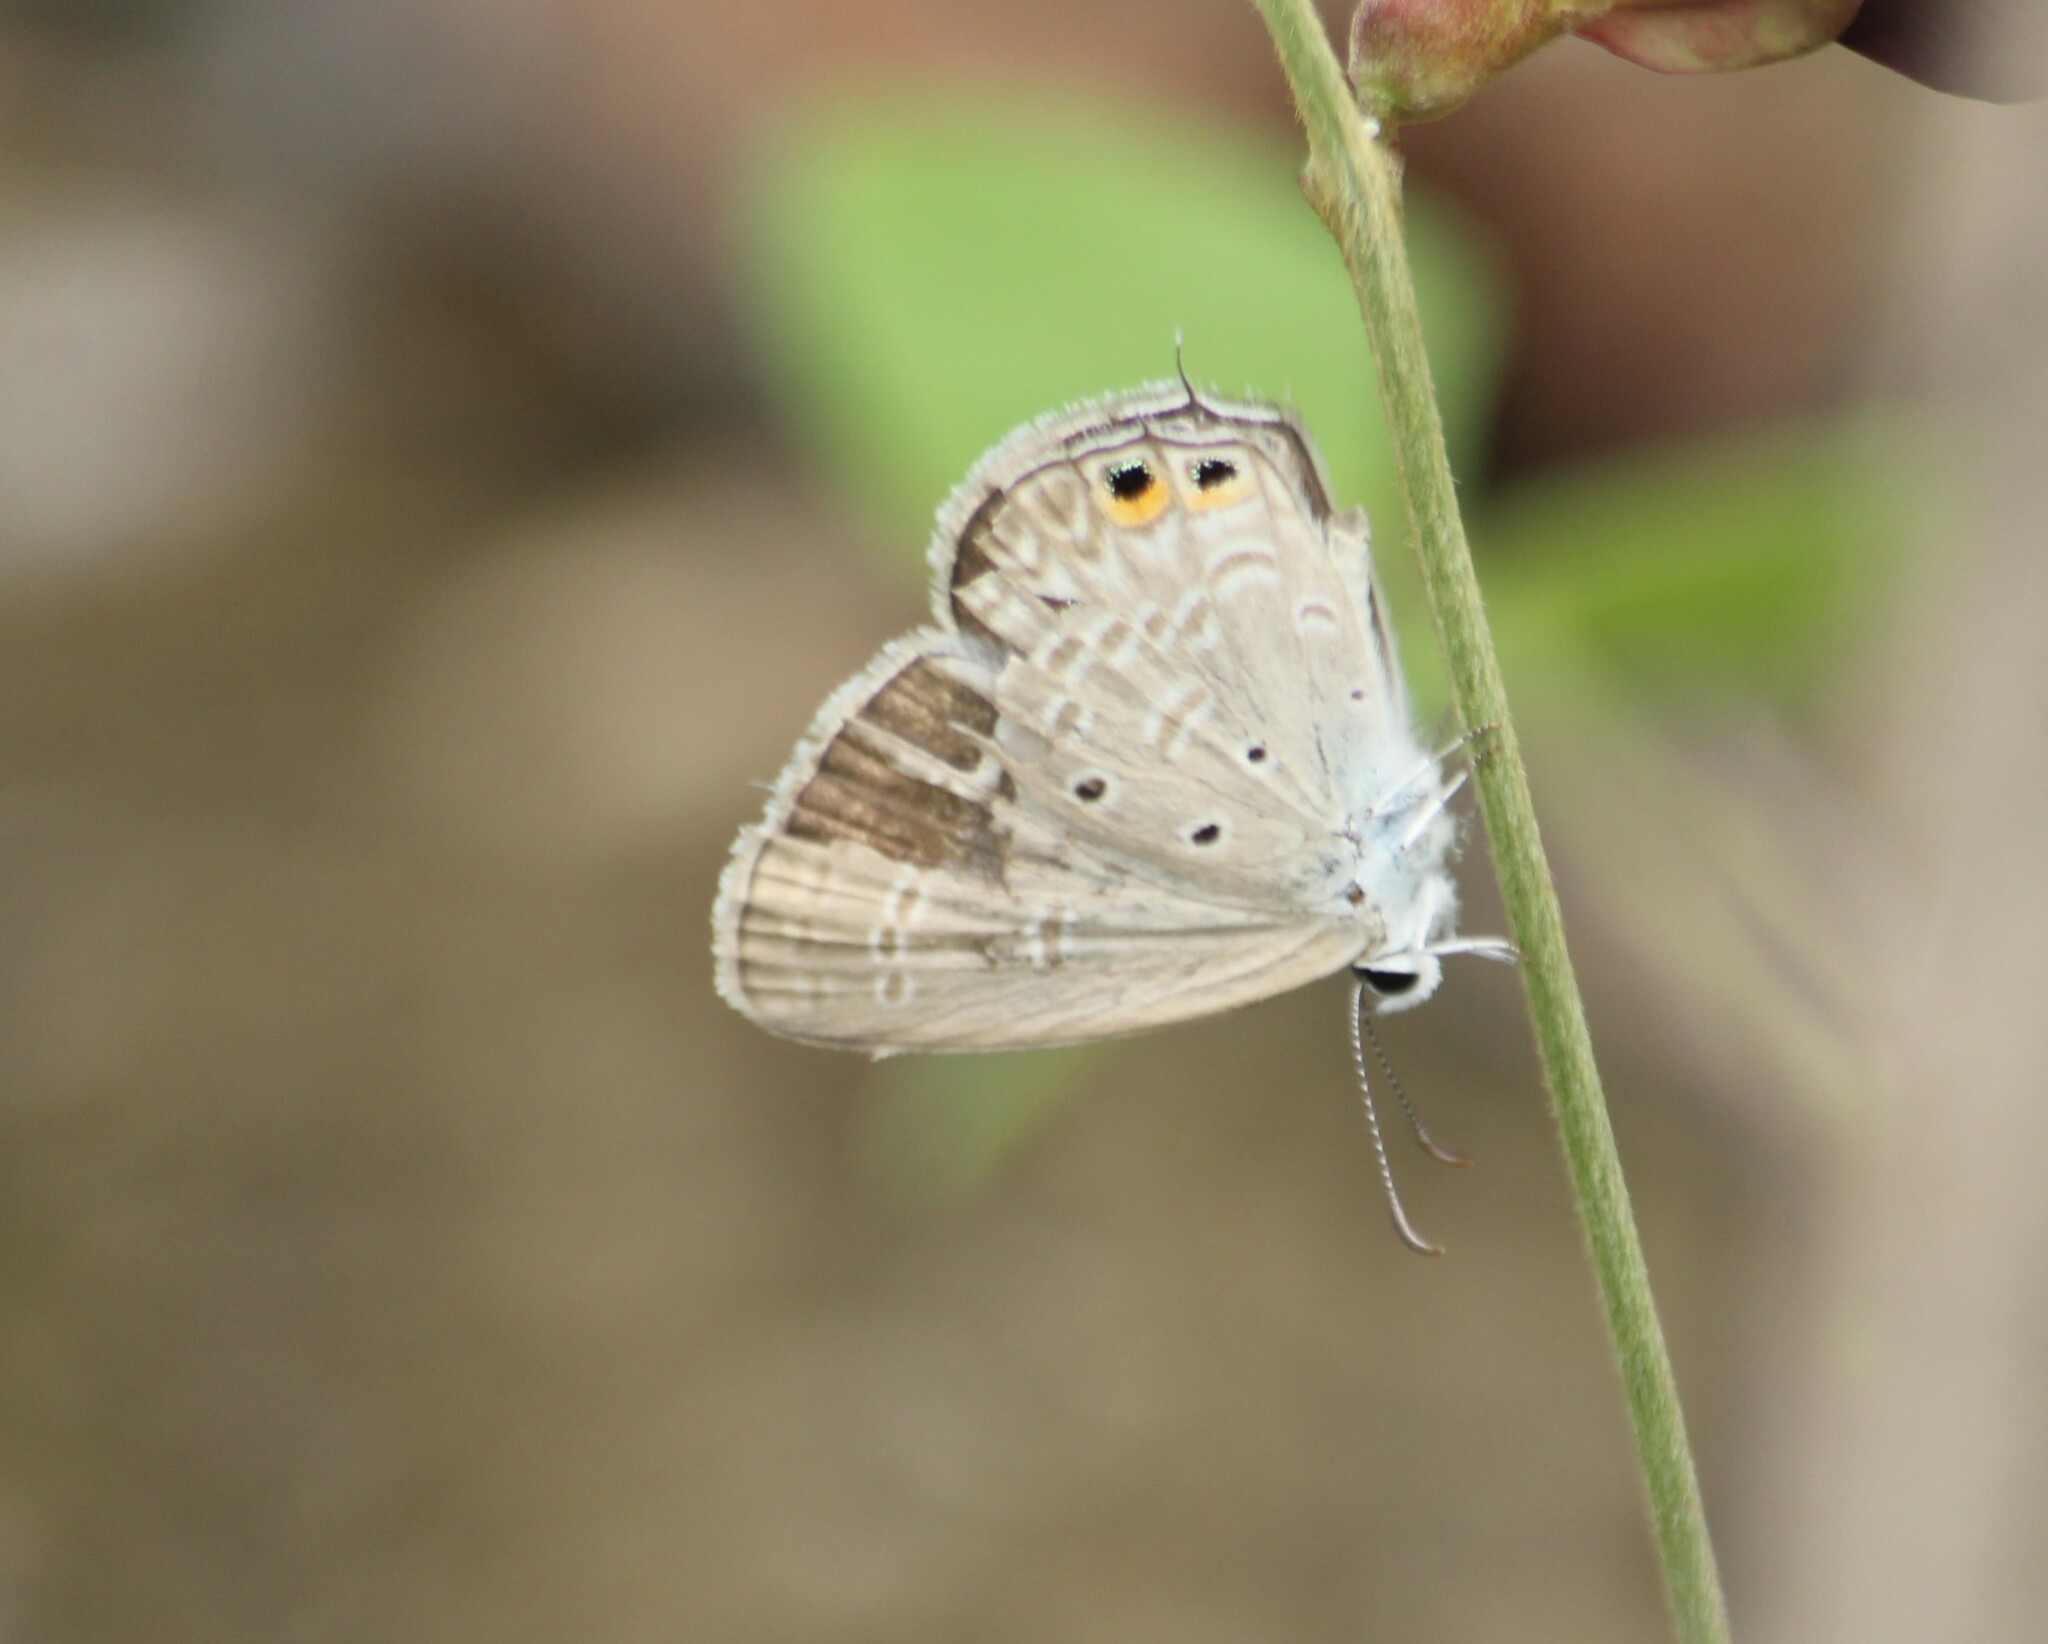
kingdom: Animalia
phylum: Arthropoda
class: Insecta
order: Lepidoptera
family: Lycaenidae
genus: Euchrysops
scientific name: Euchrysops cnejus
